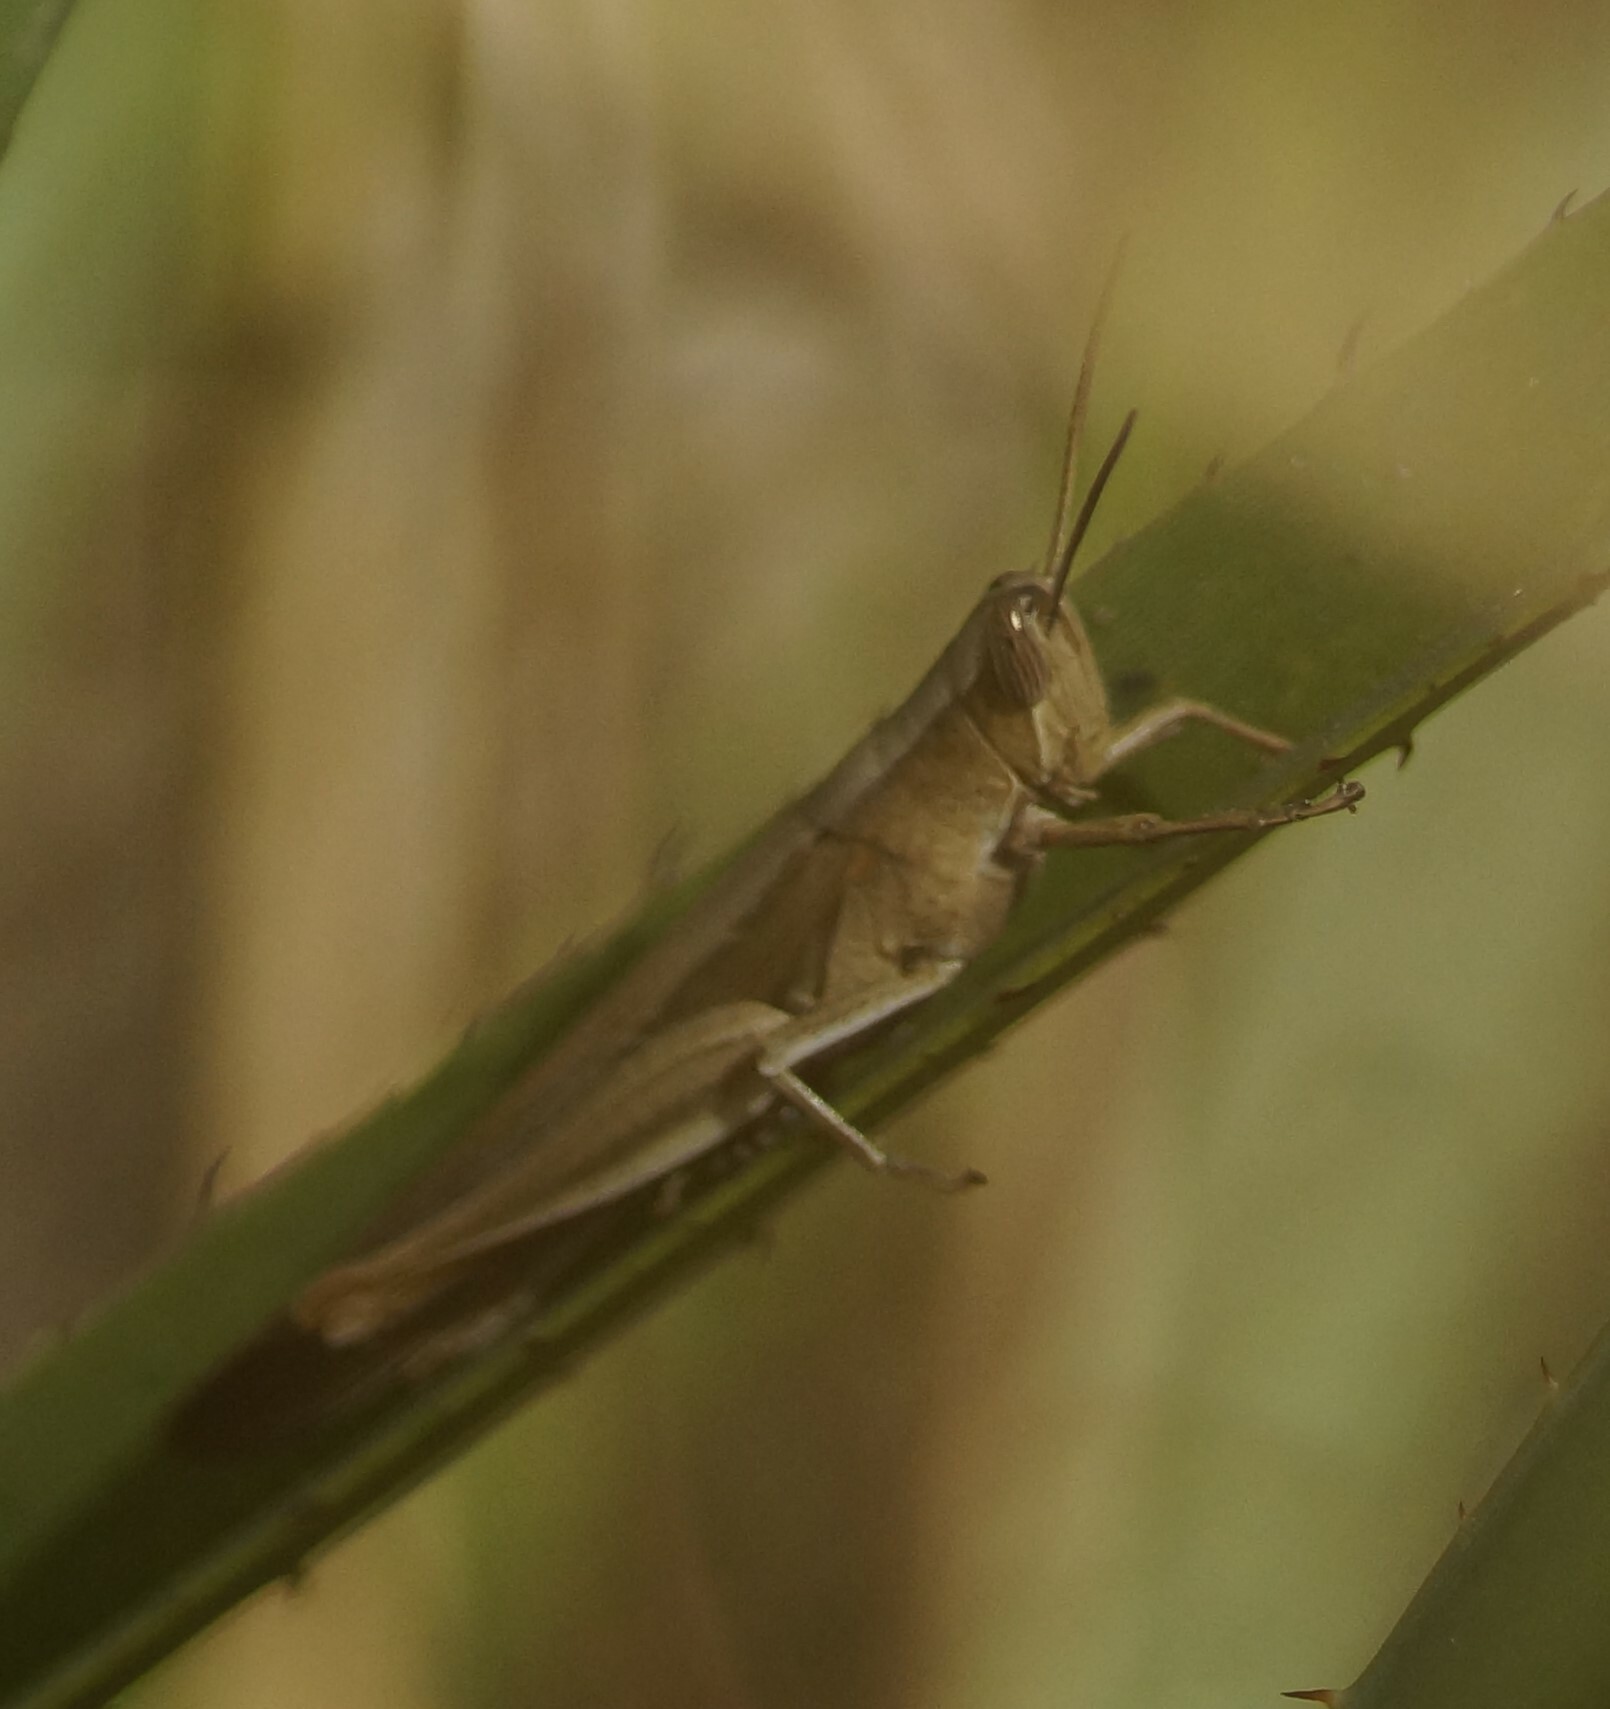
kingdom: Animalia
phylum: Arthropoda
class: Insecta
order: Orthoptera
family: Acrididae
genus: Stenocatantops
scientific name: Stenocatantops vitripennis
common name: Light-brown sharptail
